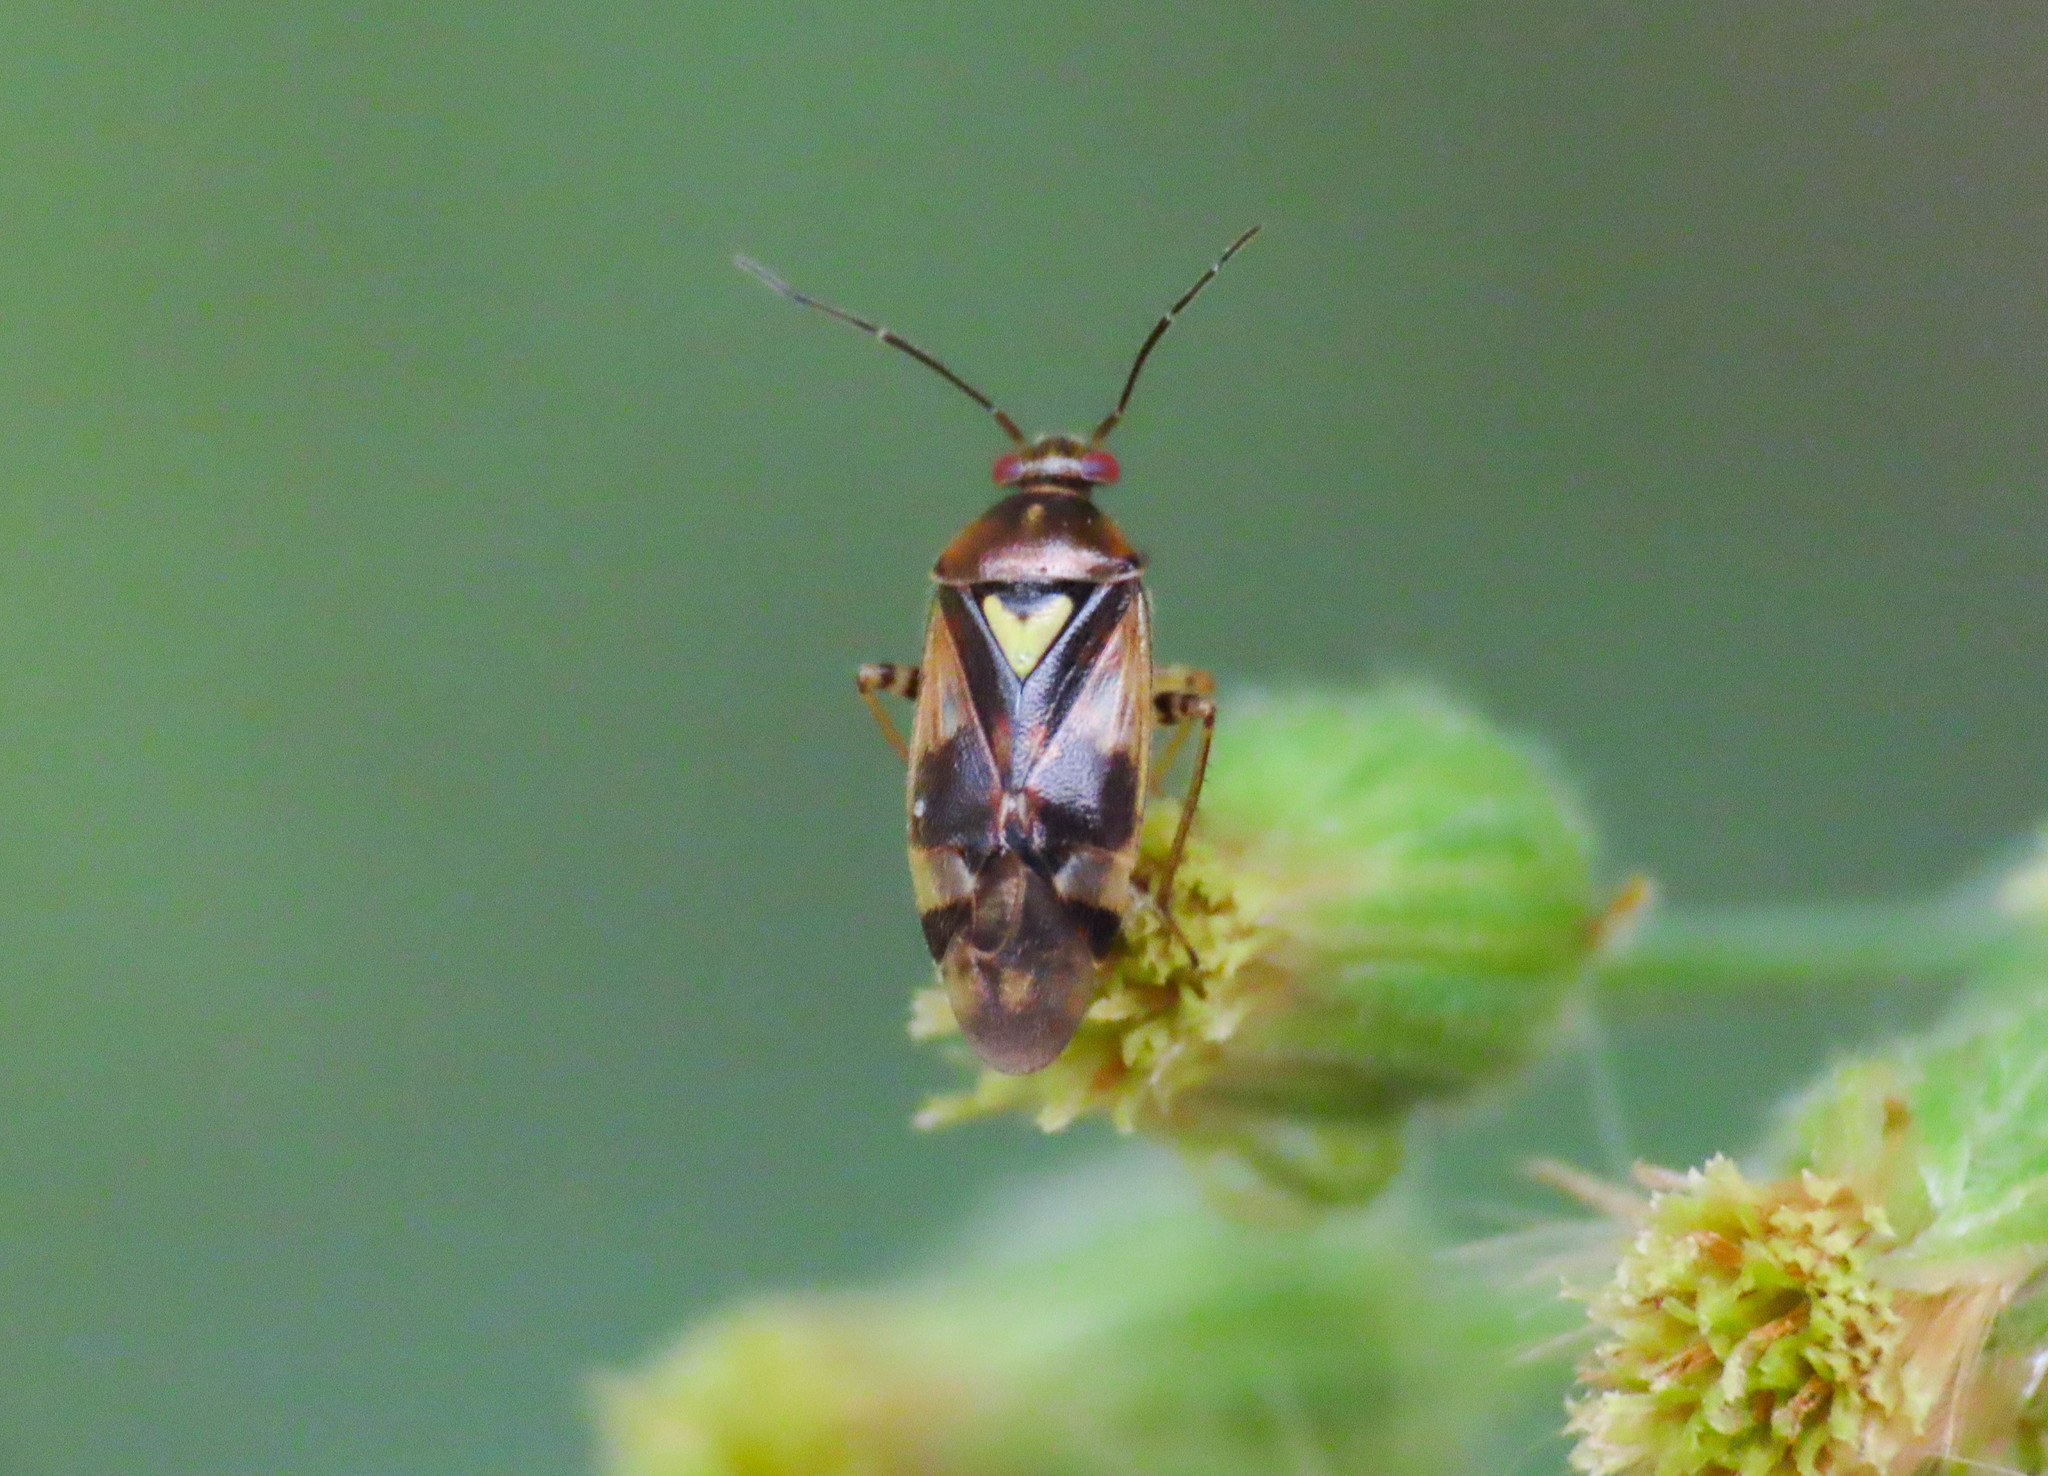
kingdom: Animalia
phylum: Arthropoda
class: Insecta
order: Hemiptera
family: Miridae
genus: Orthops
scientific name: Orthops basalis
